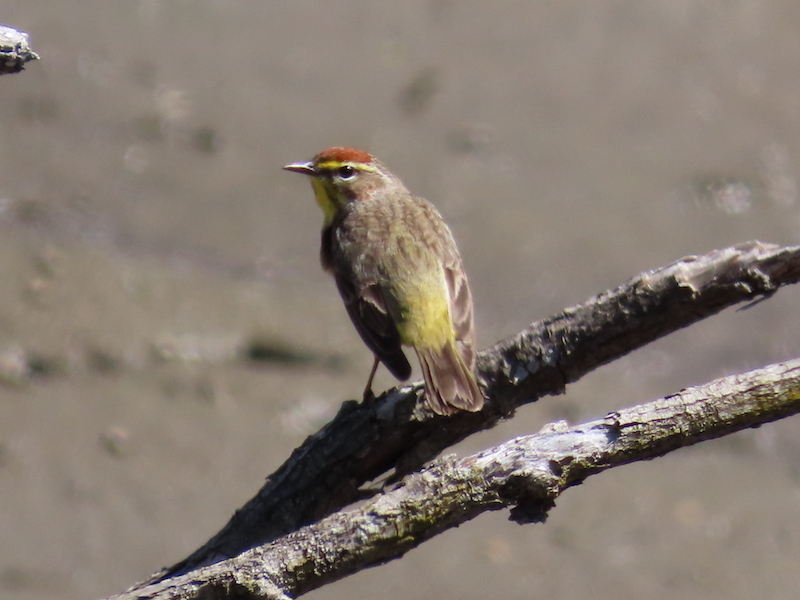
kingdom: Animalia
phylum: Chordata
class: Aves
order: Passeriformes
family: Parulidae
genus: Setophaga
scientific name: Setophaga palmarum
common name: Palm warbler
